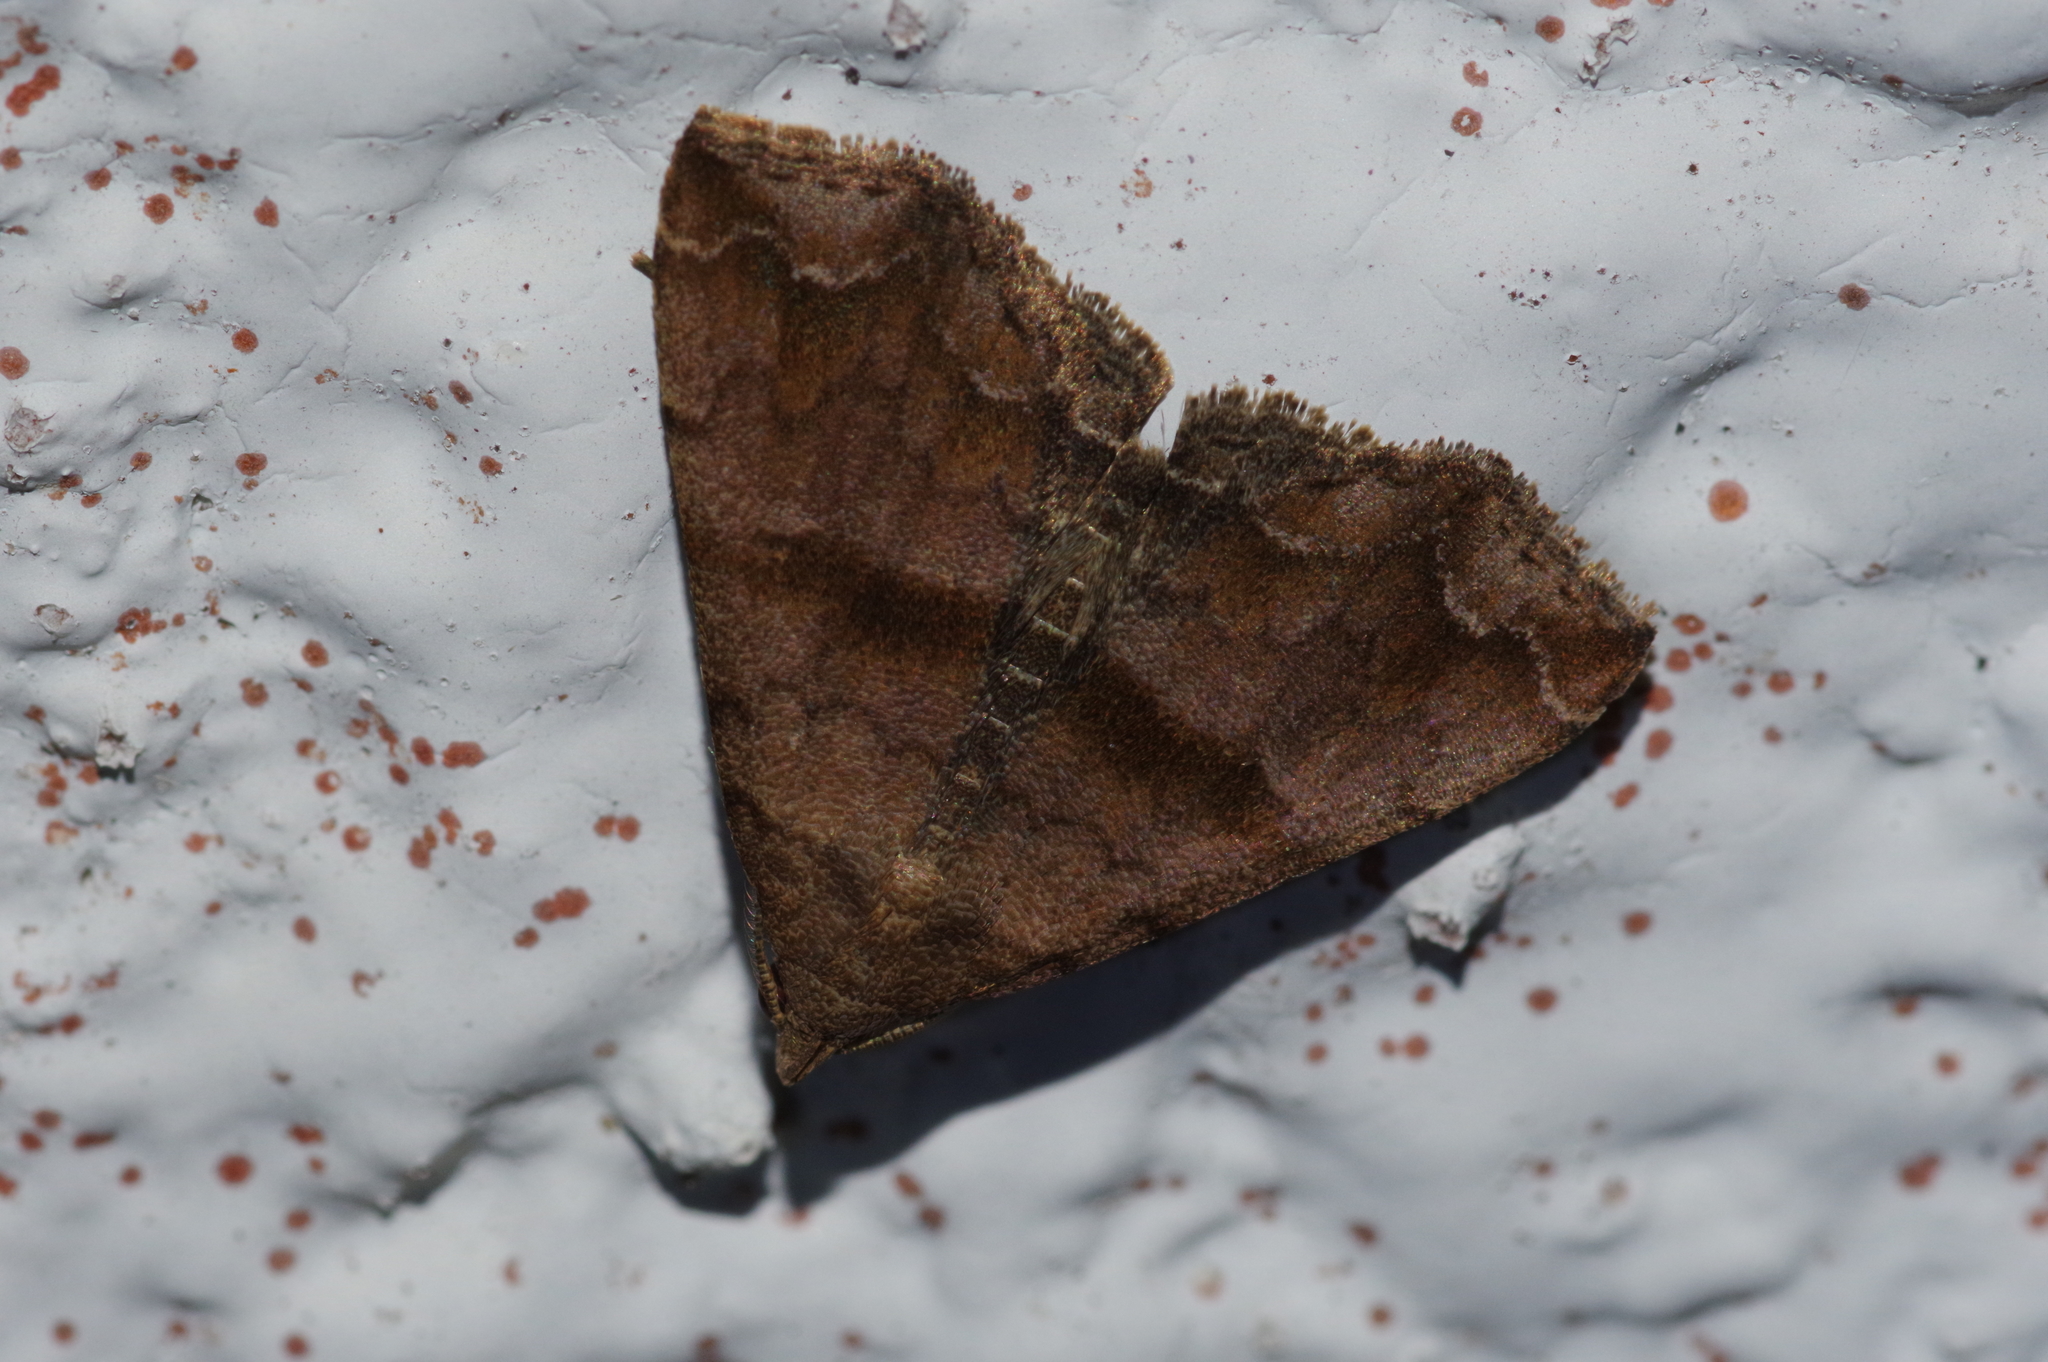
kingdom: Animalia
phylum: Arthropoda
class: Insecta
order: Lepidoptera
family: Erebidae
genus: Polypogon
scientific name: Polypogon Hipoepa fractalis
